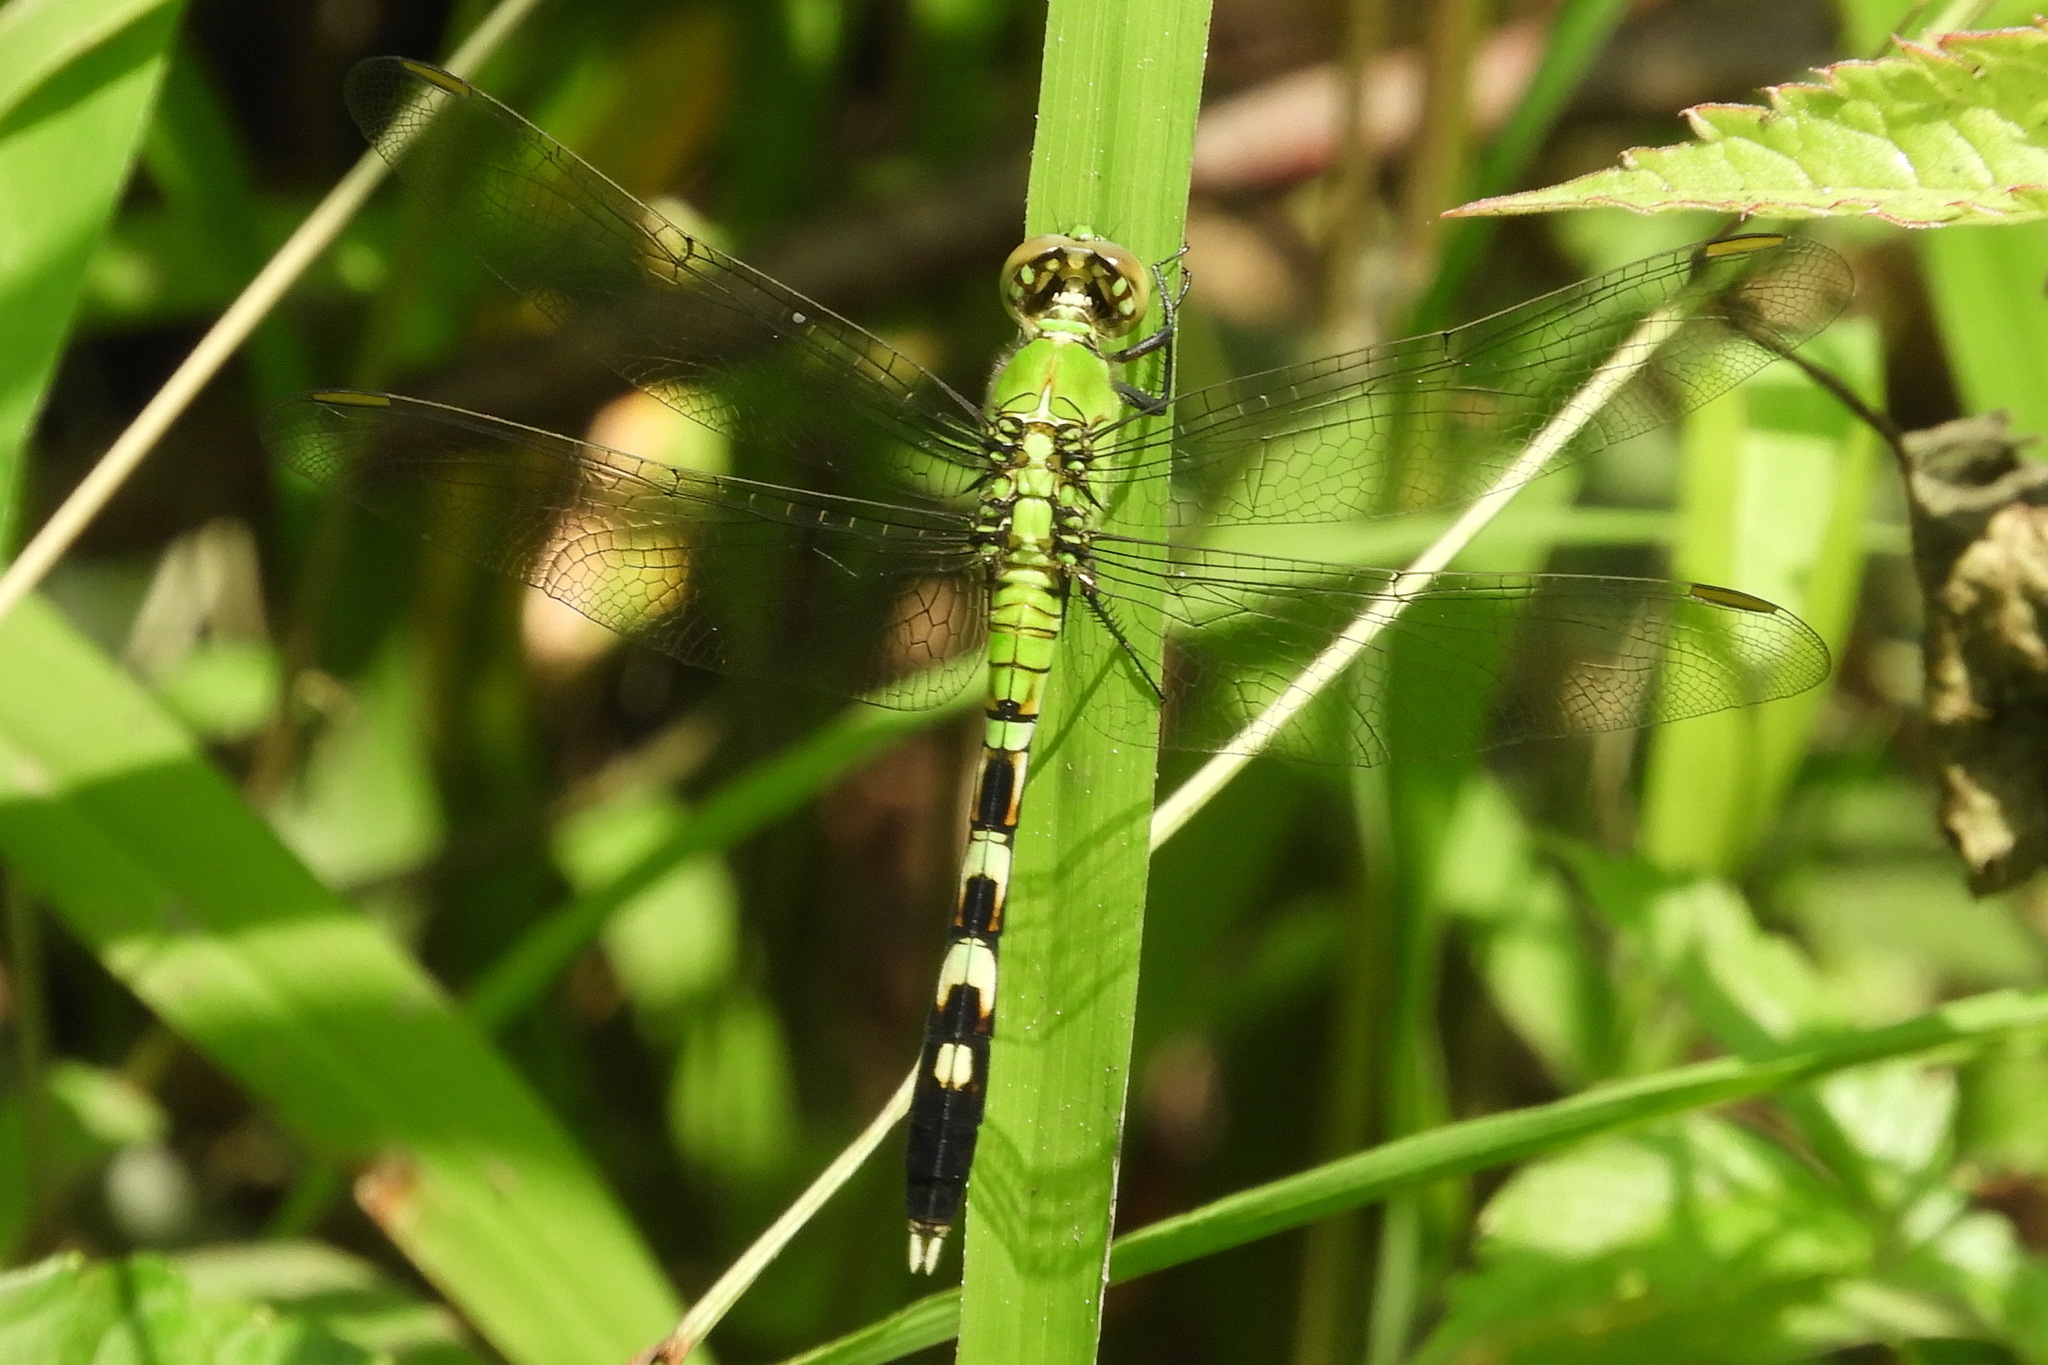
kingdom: Animalia
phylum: Arthropoda
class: Insecta
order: Odonata
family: Libellulidae
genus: Erythemis
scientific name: Erythemis simplicicollis
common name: Eastern pondhawk
